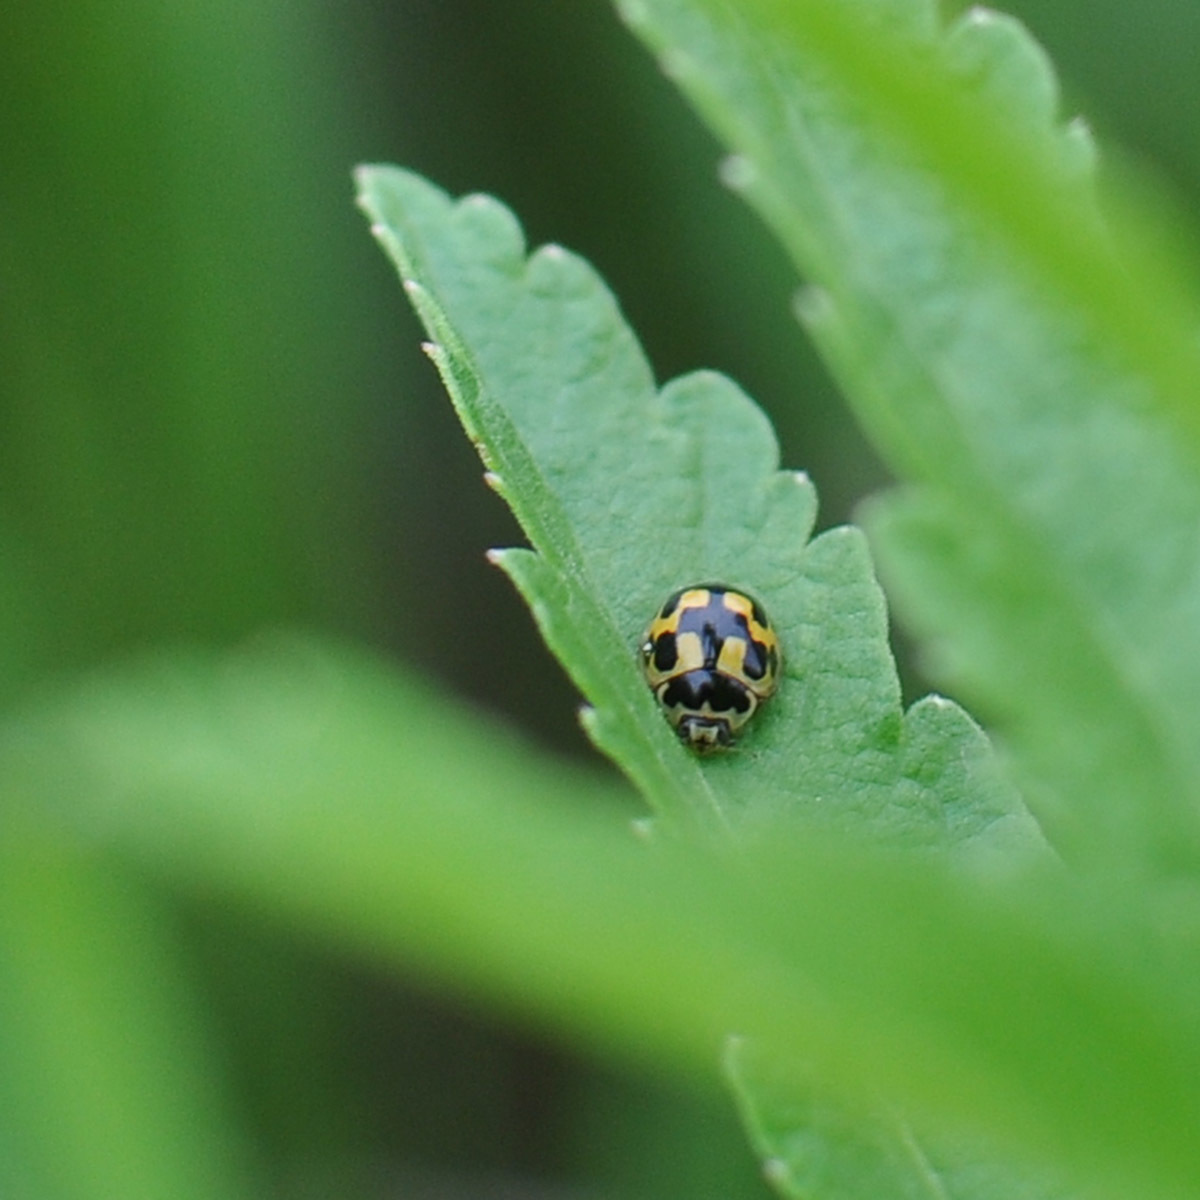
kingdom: Animalia
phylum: Arthropoda
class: Insecta
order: Coleoptera
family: Coccinellidae
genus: Propylaea
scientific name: Propylaea quatuordecimpunctata
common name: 14-spotted ladybird beetle
